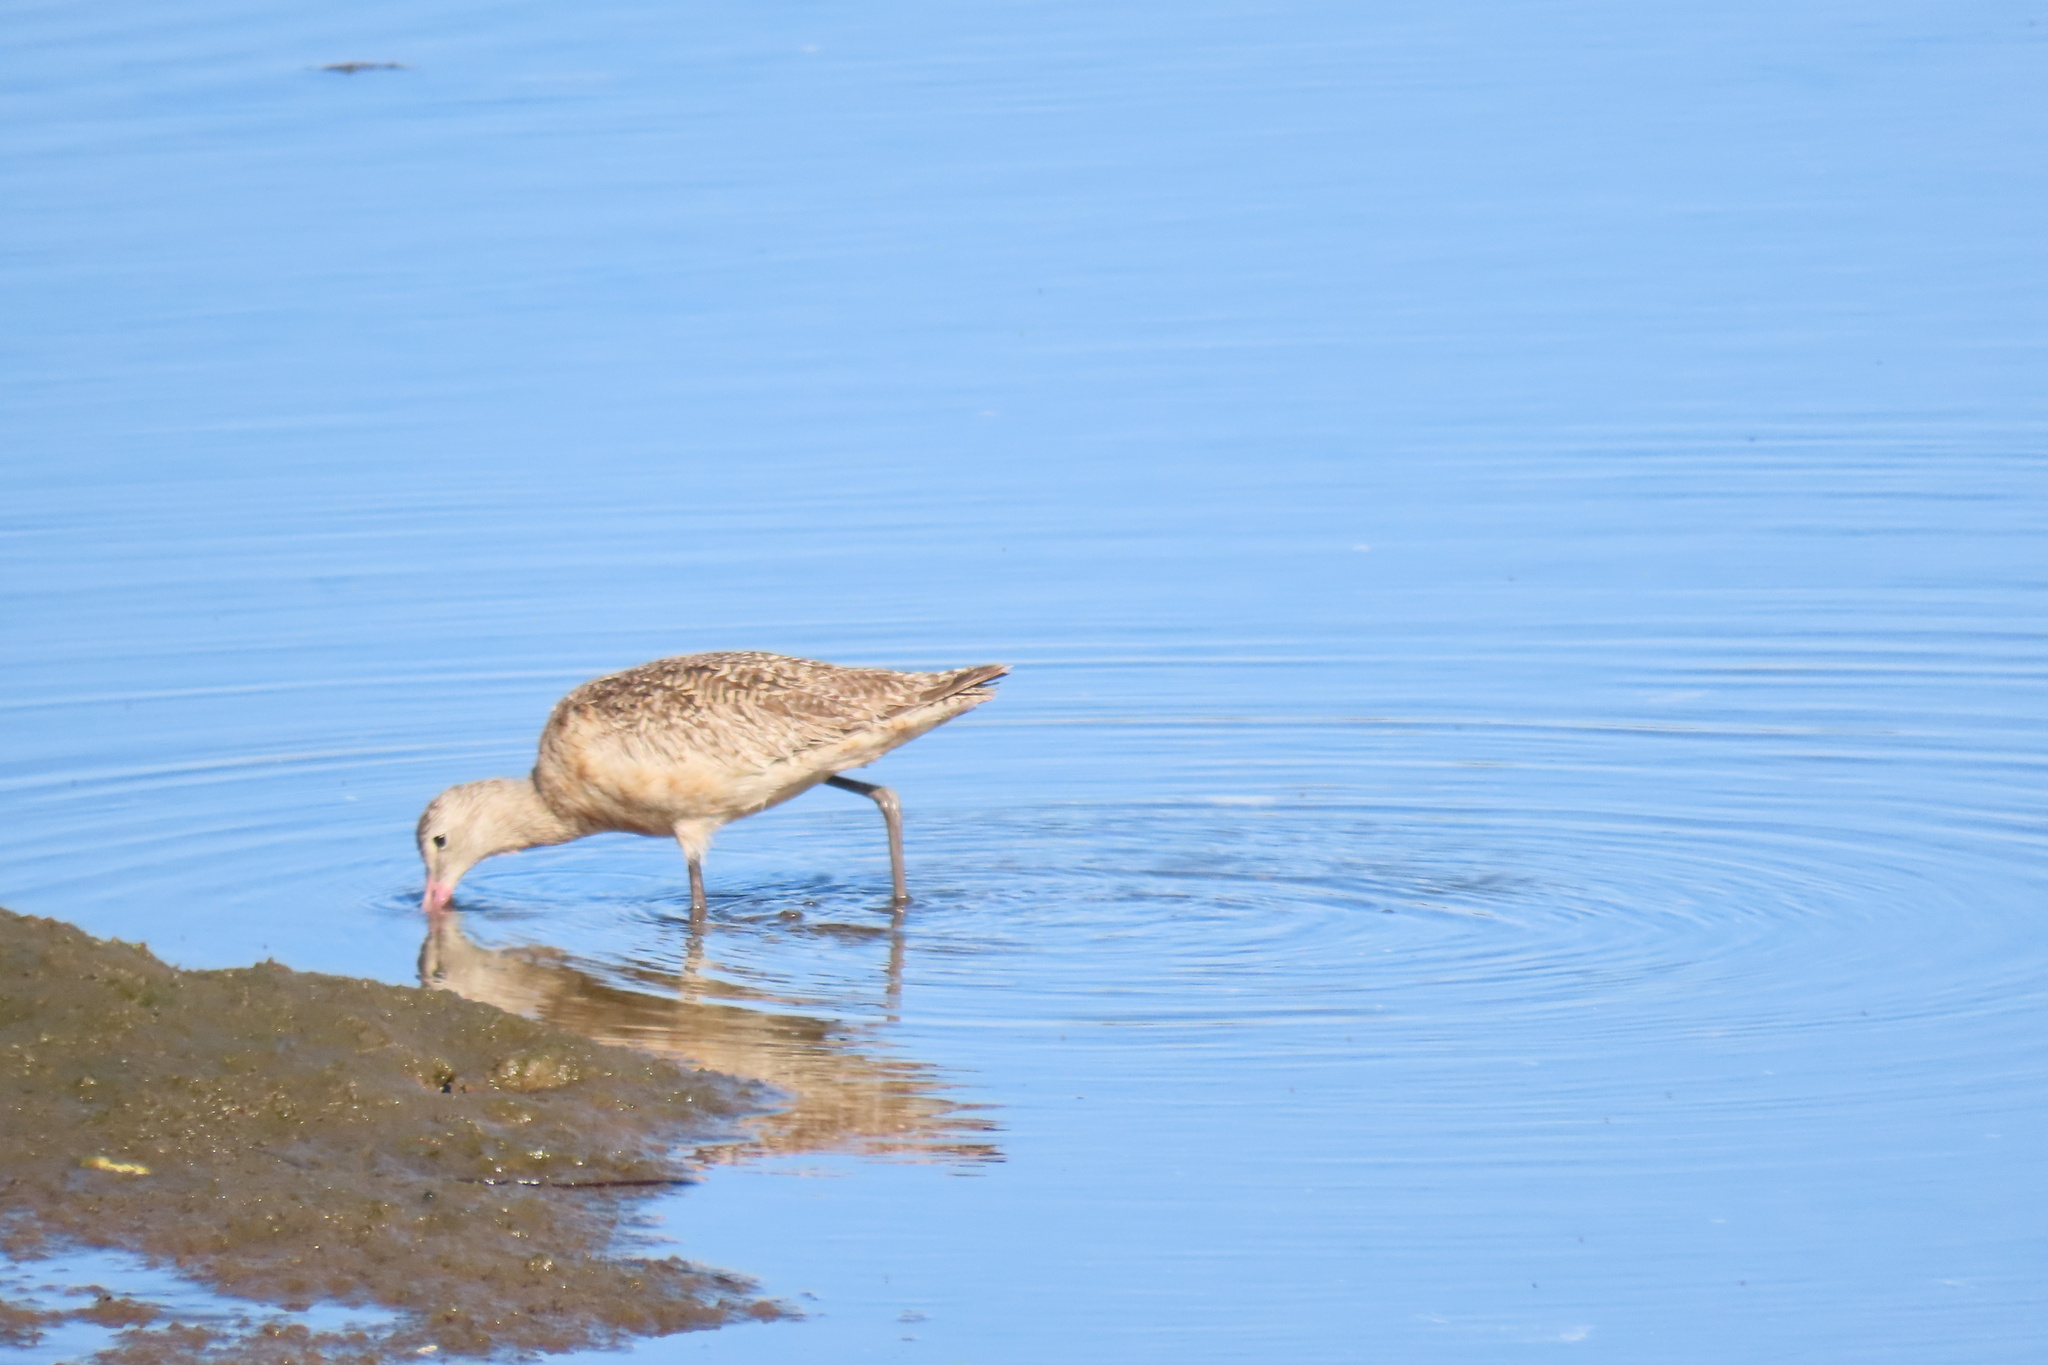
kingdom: Animalia
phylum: Chordata
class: Aves
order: Charadriiformes
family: Scolopacidae
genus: Limosa
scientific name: Limosa fedoa
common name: Marbled godwit
